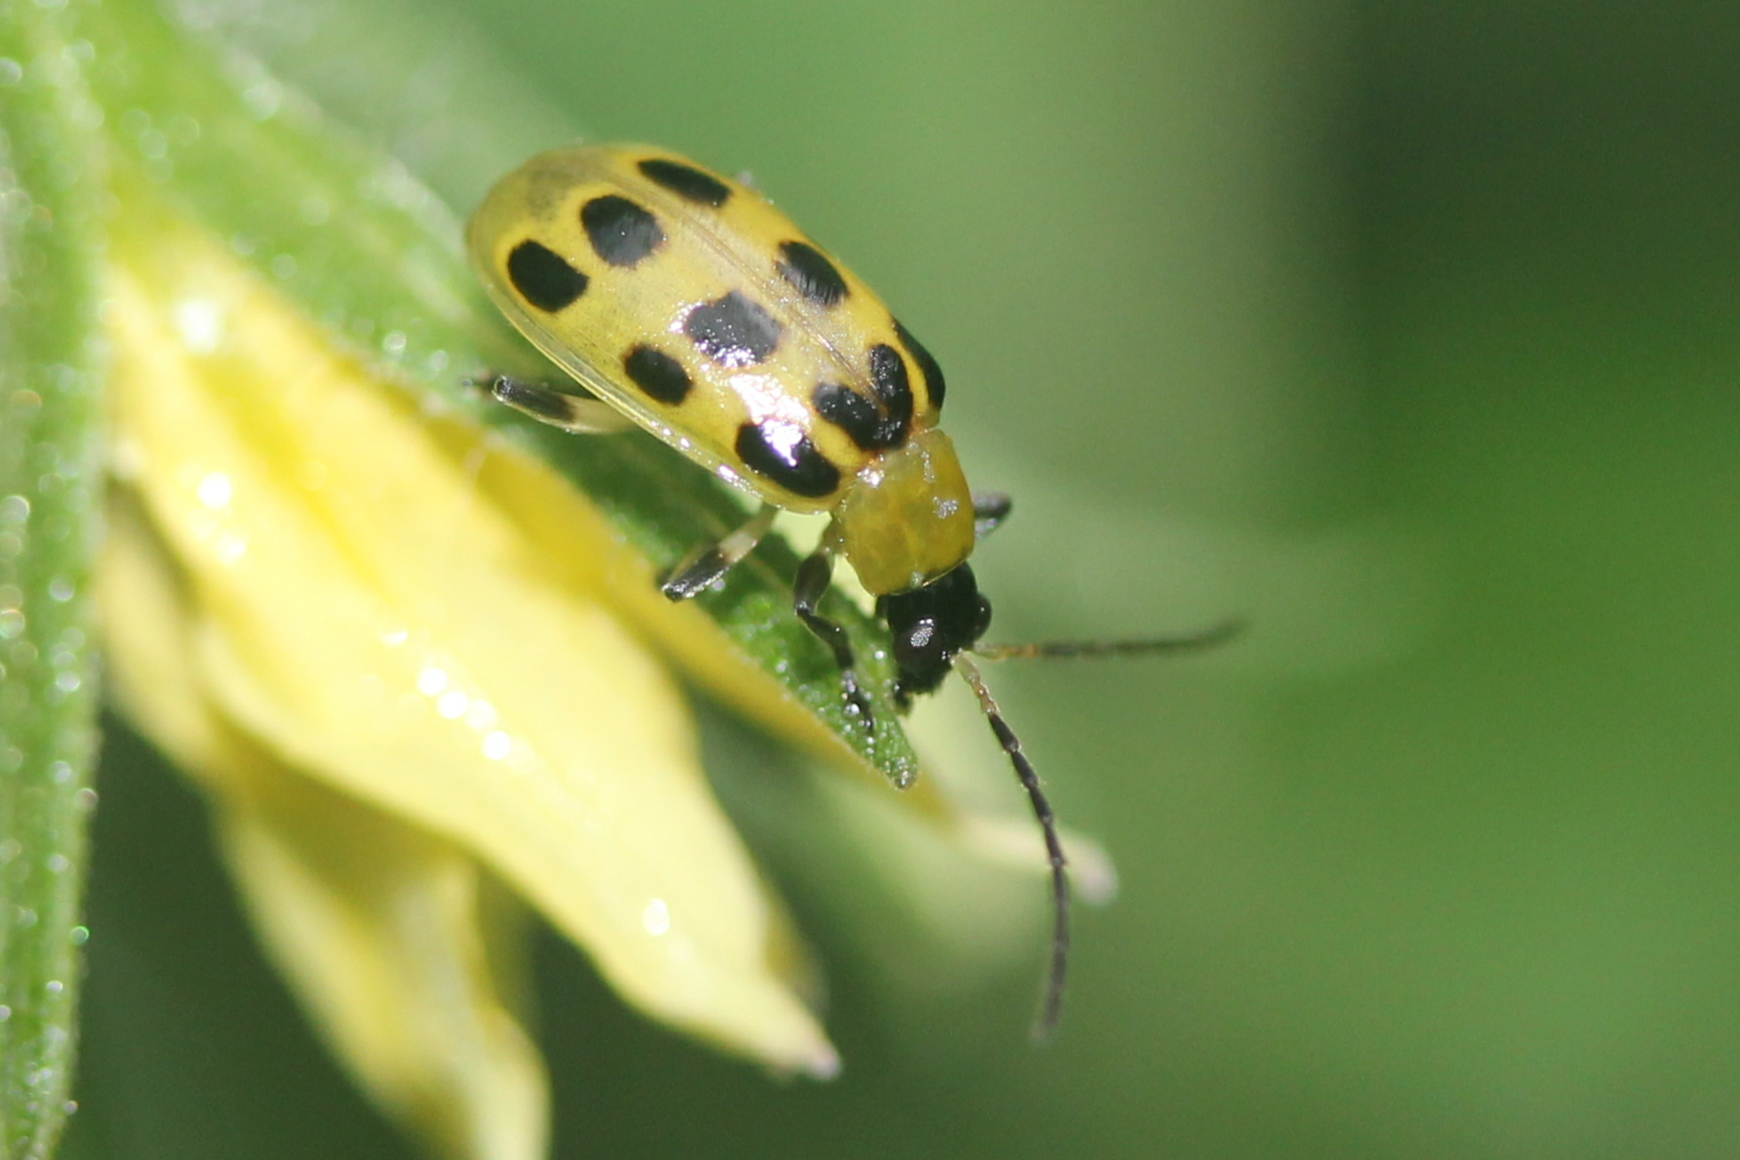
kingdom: Animalia
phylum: Arthropoda
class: Insecta
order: Coleoptera
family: Chrysomelidae
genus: Diabrotica
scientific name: Diabrotica undecimpunctata
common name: Spotted cucumber beetle
